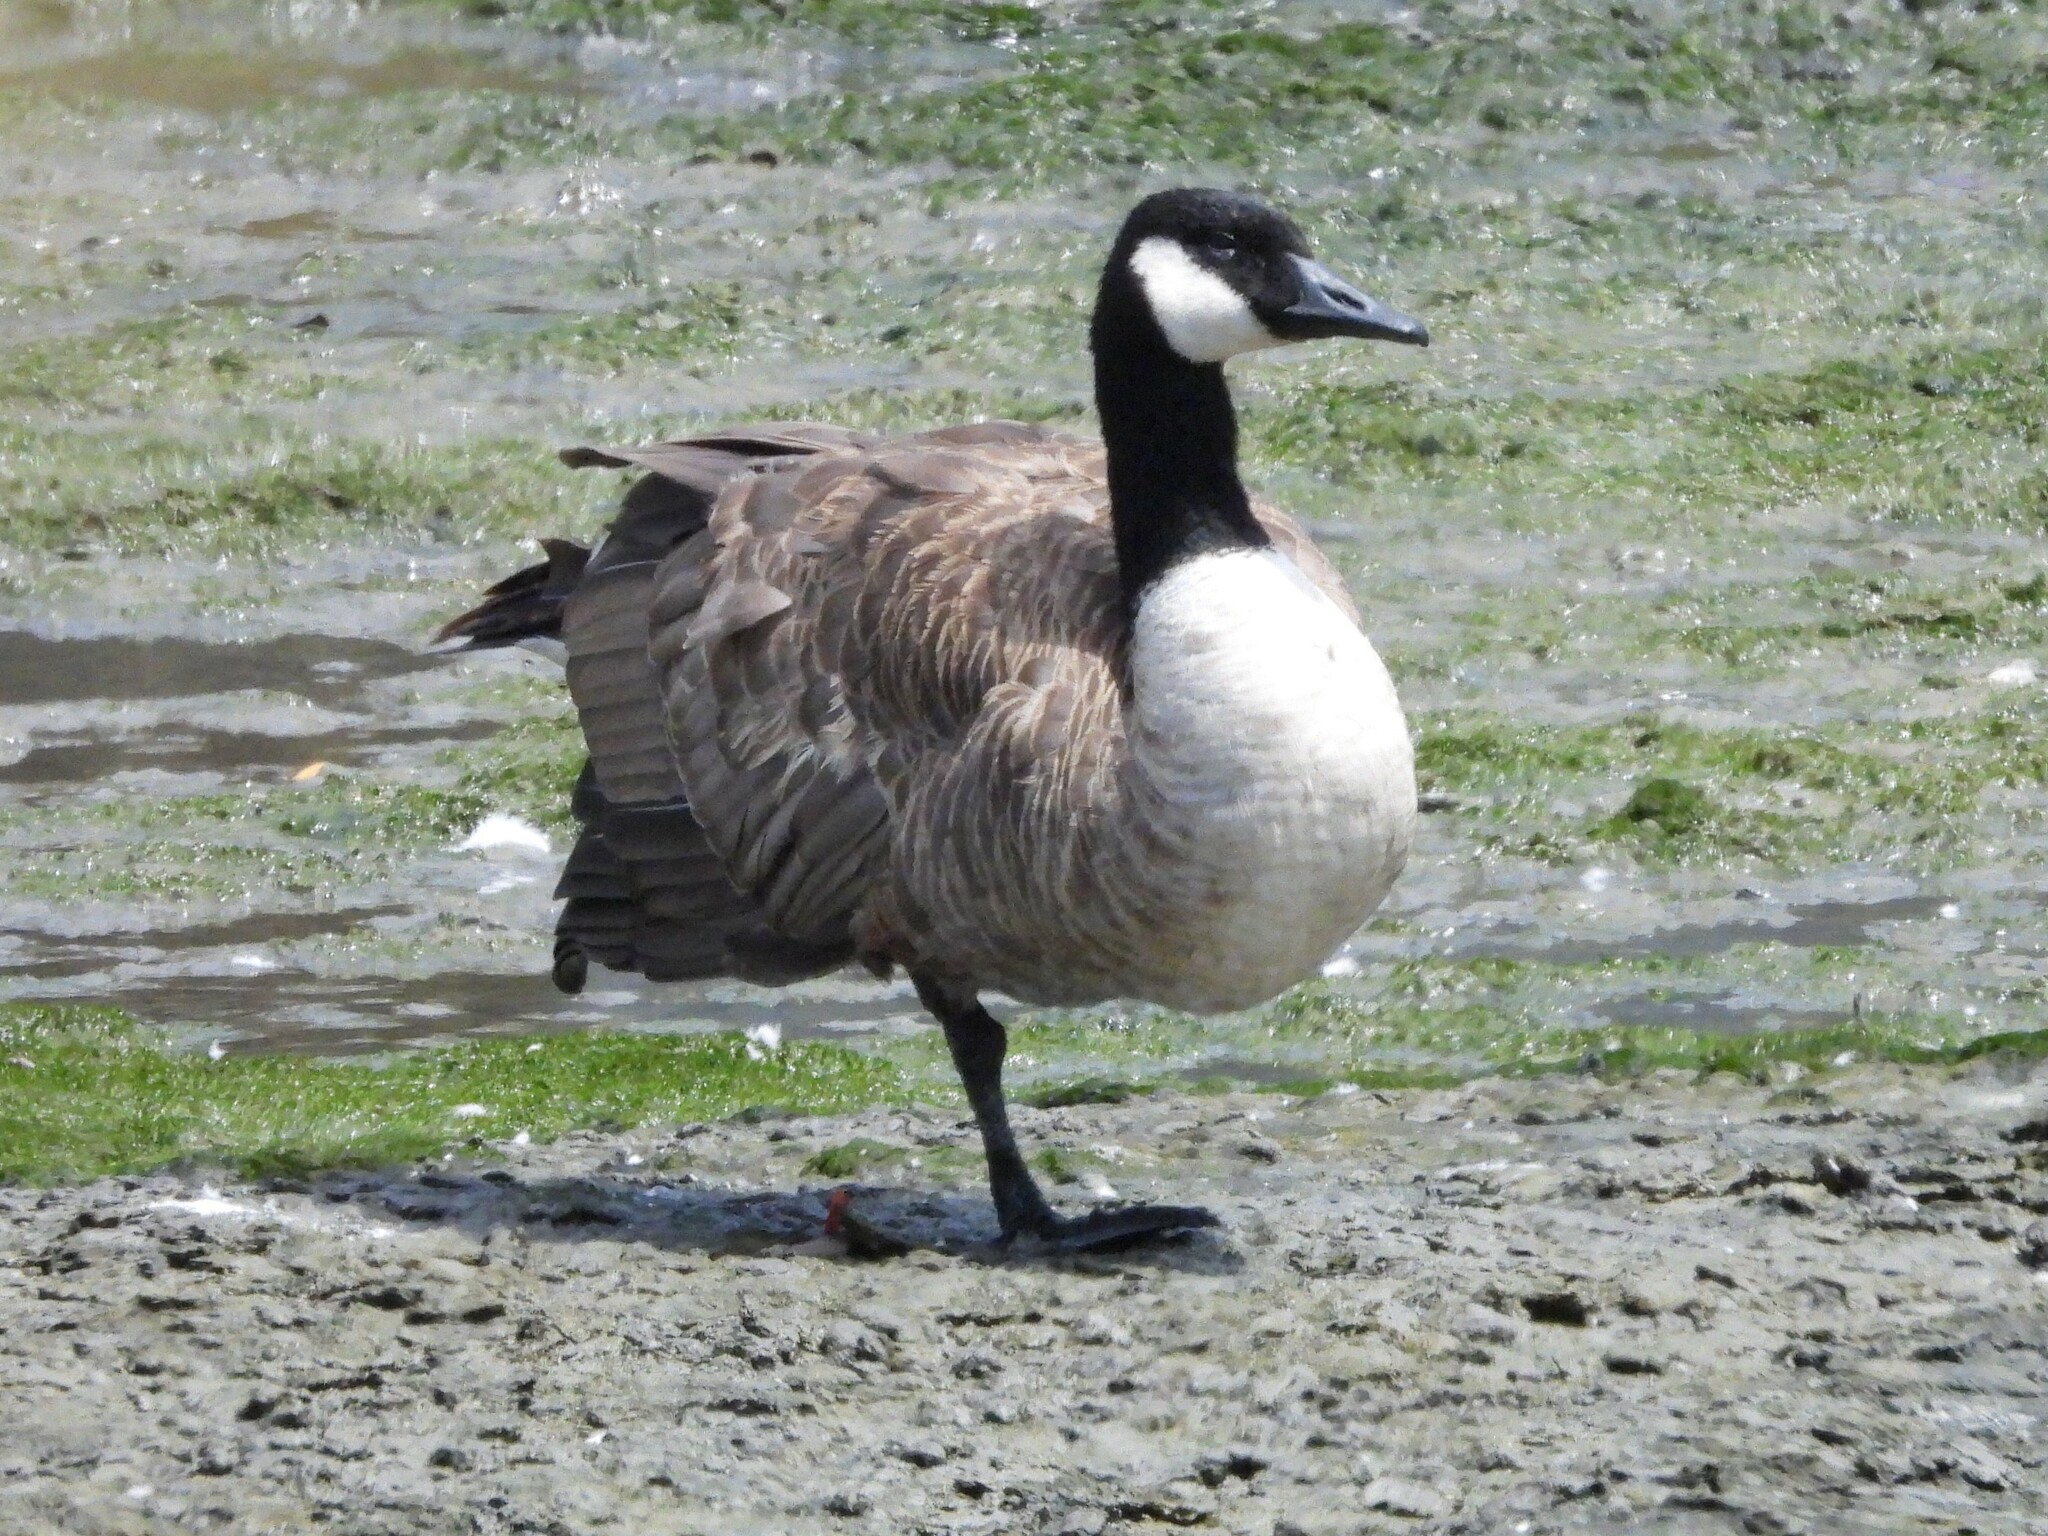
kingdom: Animalia
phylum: Chordata
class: Aves
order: Anseriformes
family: Anatidae
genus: Branta
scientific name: Branta canadensis
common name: Canada goose
